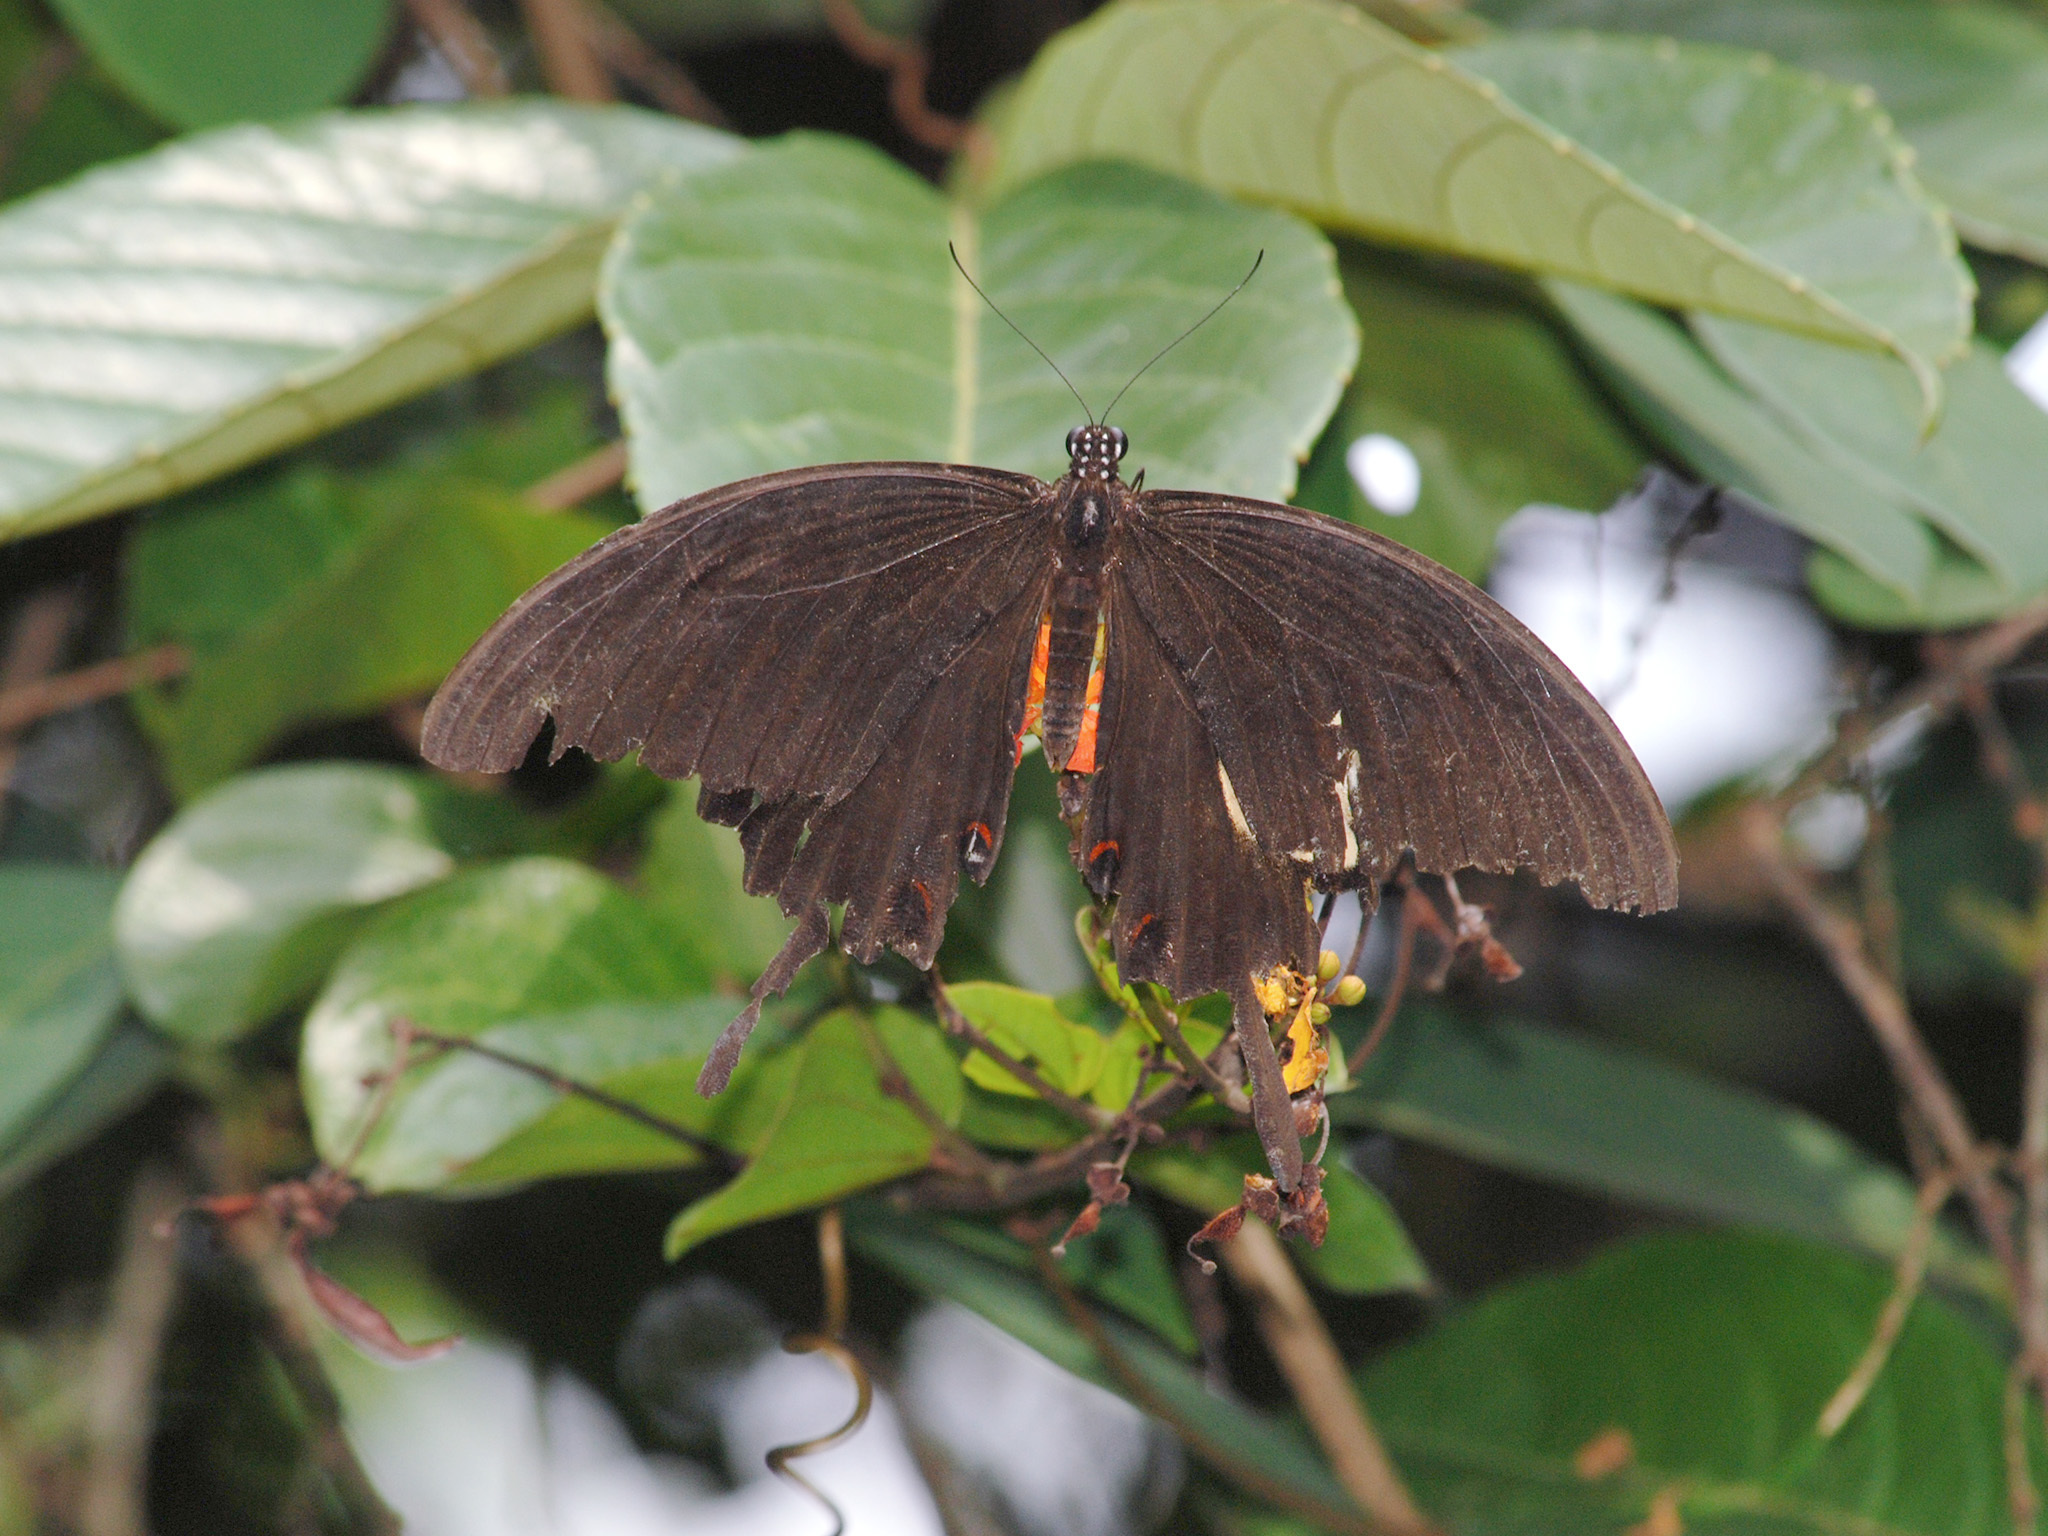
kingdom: Animalia
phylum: Arthropoda
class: Insecta
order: Lepidoptera
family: Papilionidae
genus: Papilio
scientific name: Papilio helenus
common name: Red helen
